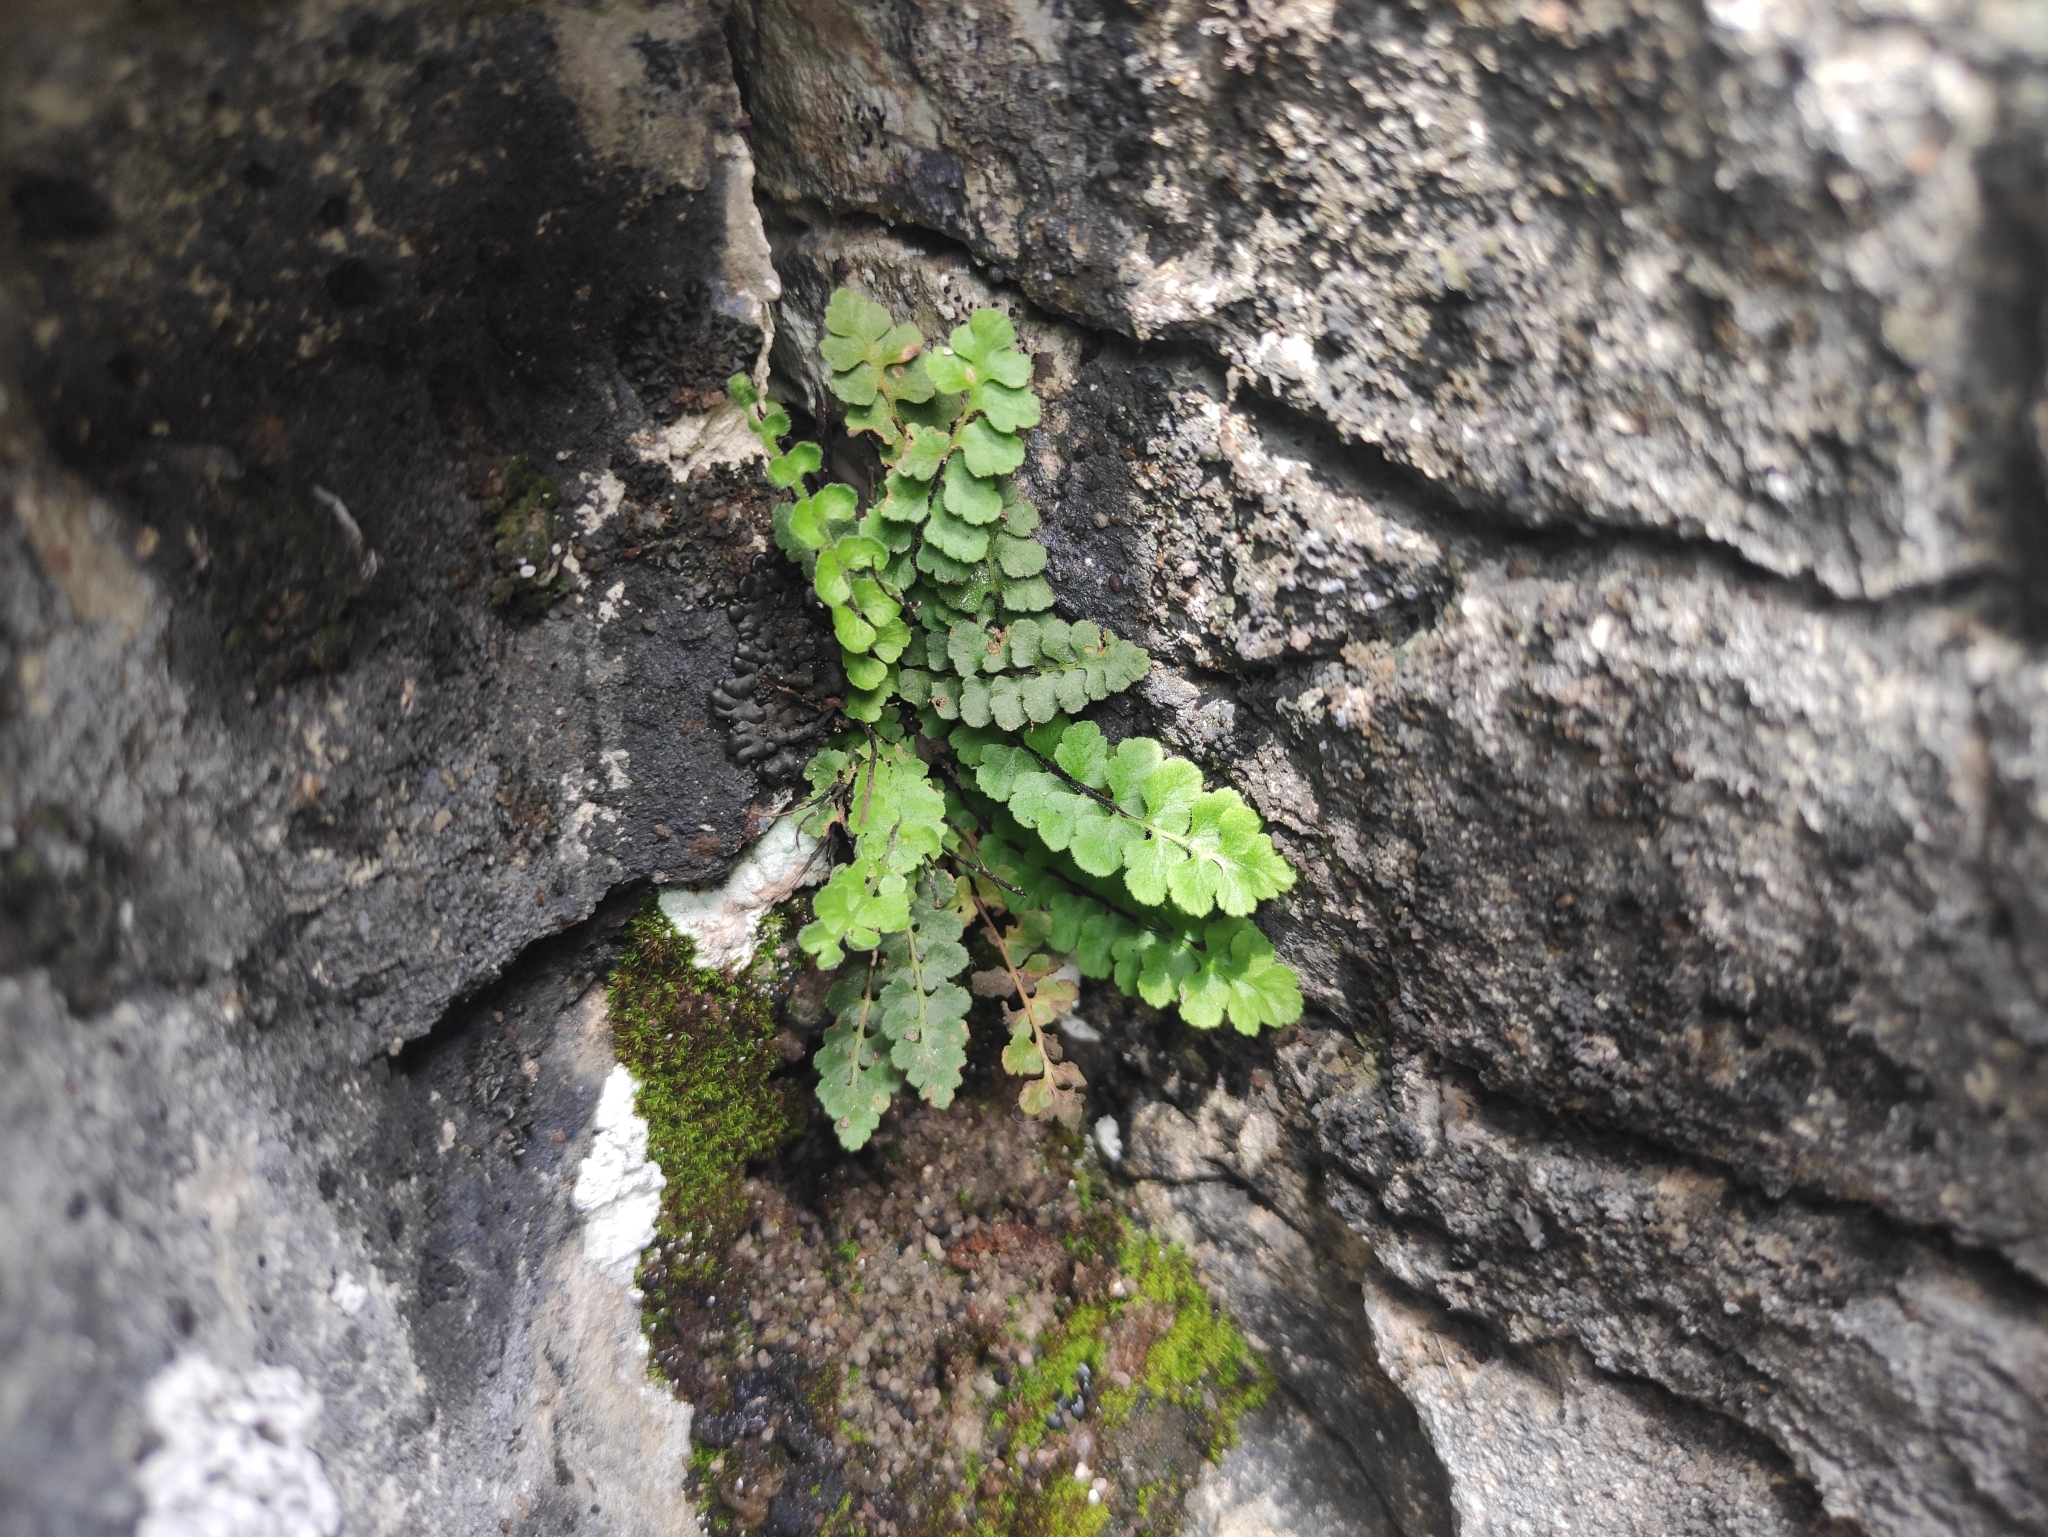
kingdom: Plantae
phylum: Tracheophyta
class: Polypodiopsida
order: Polypodiales
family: Aspleniaceae
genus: Asplenium
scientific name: Asplenium petrarchae
